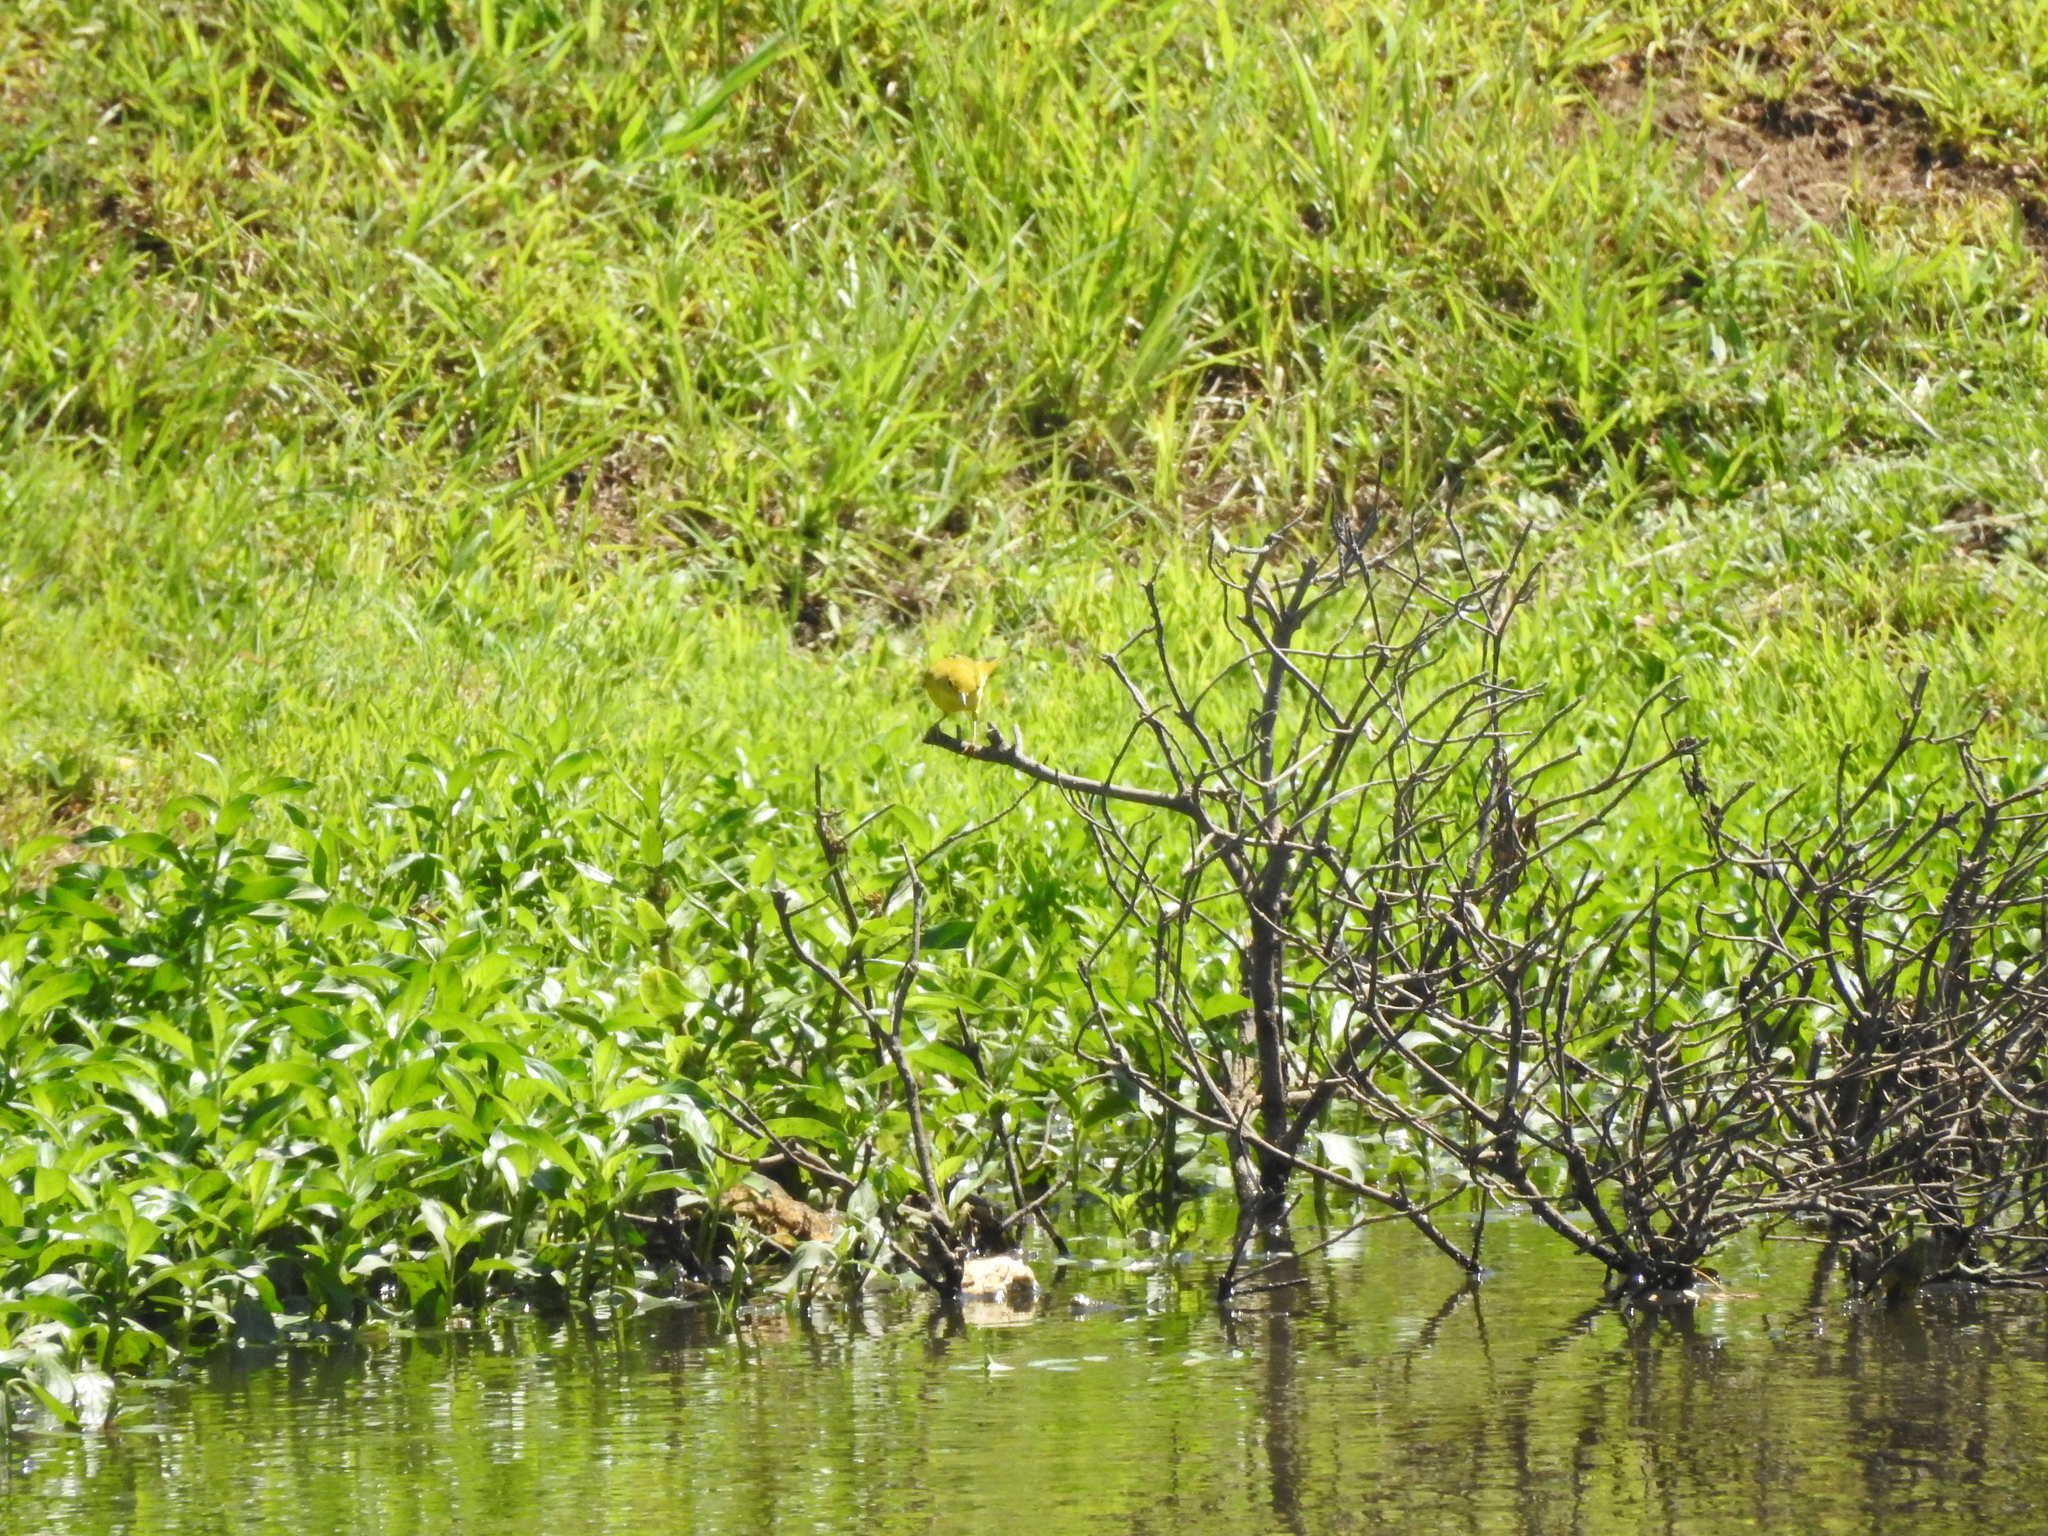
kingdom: Animalia
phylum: Chordata
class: Aves
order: Passeriformes
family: Parulidae
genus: Setophaga
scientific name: Setophaga petechia
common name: Yellow warbler
